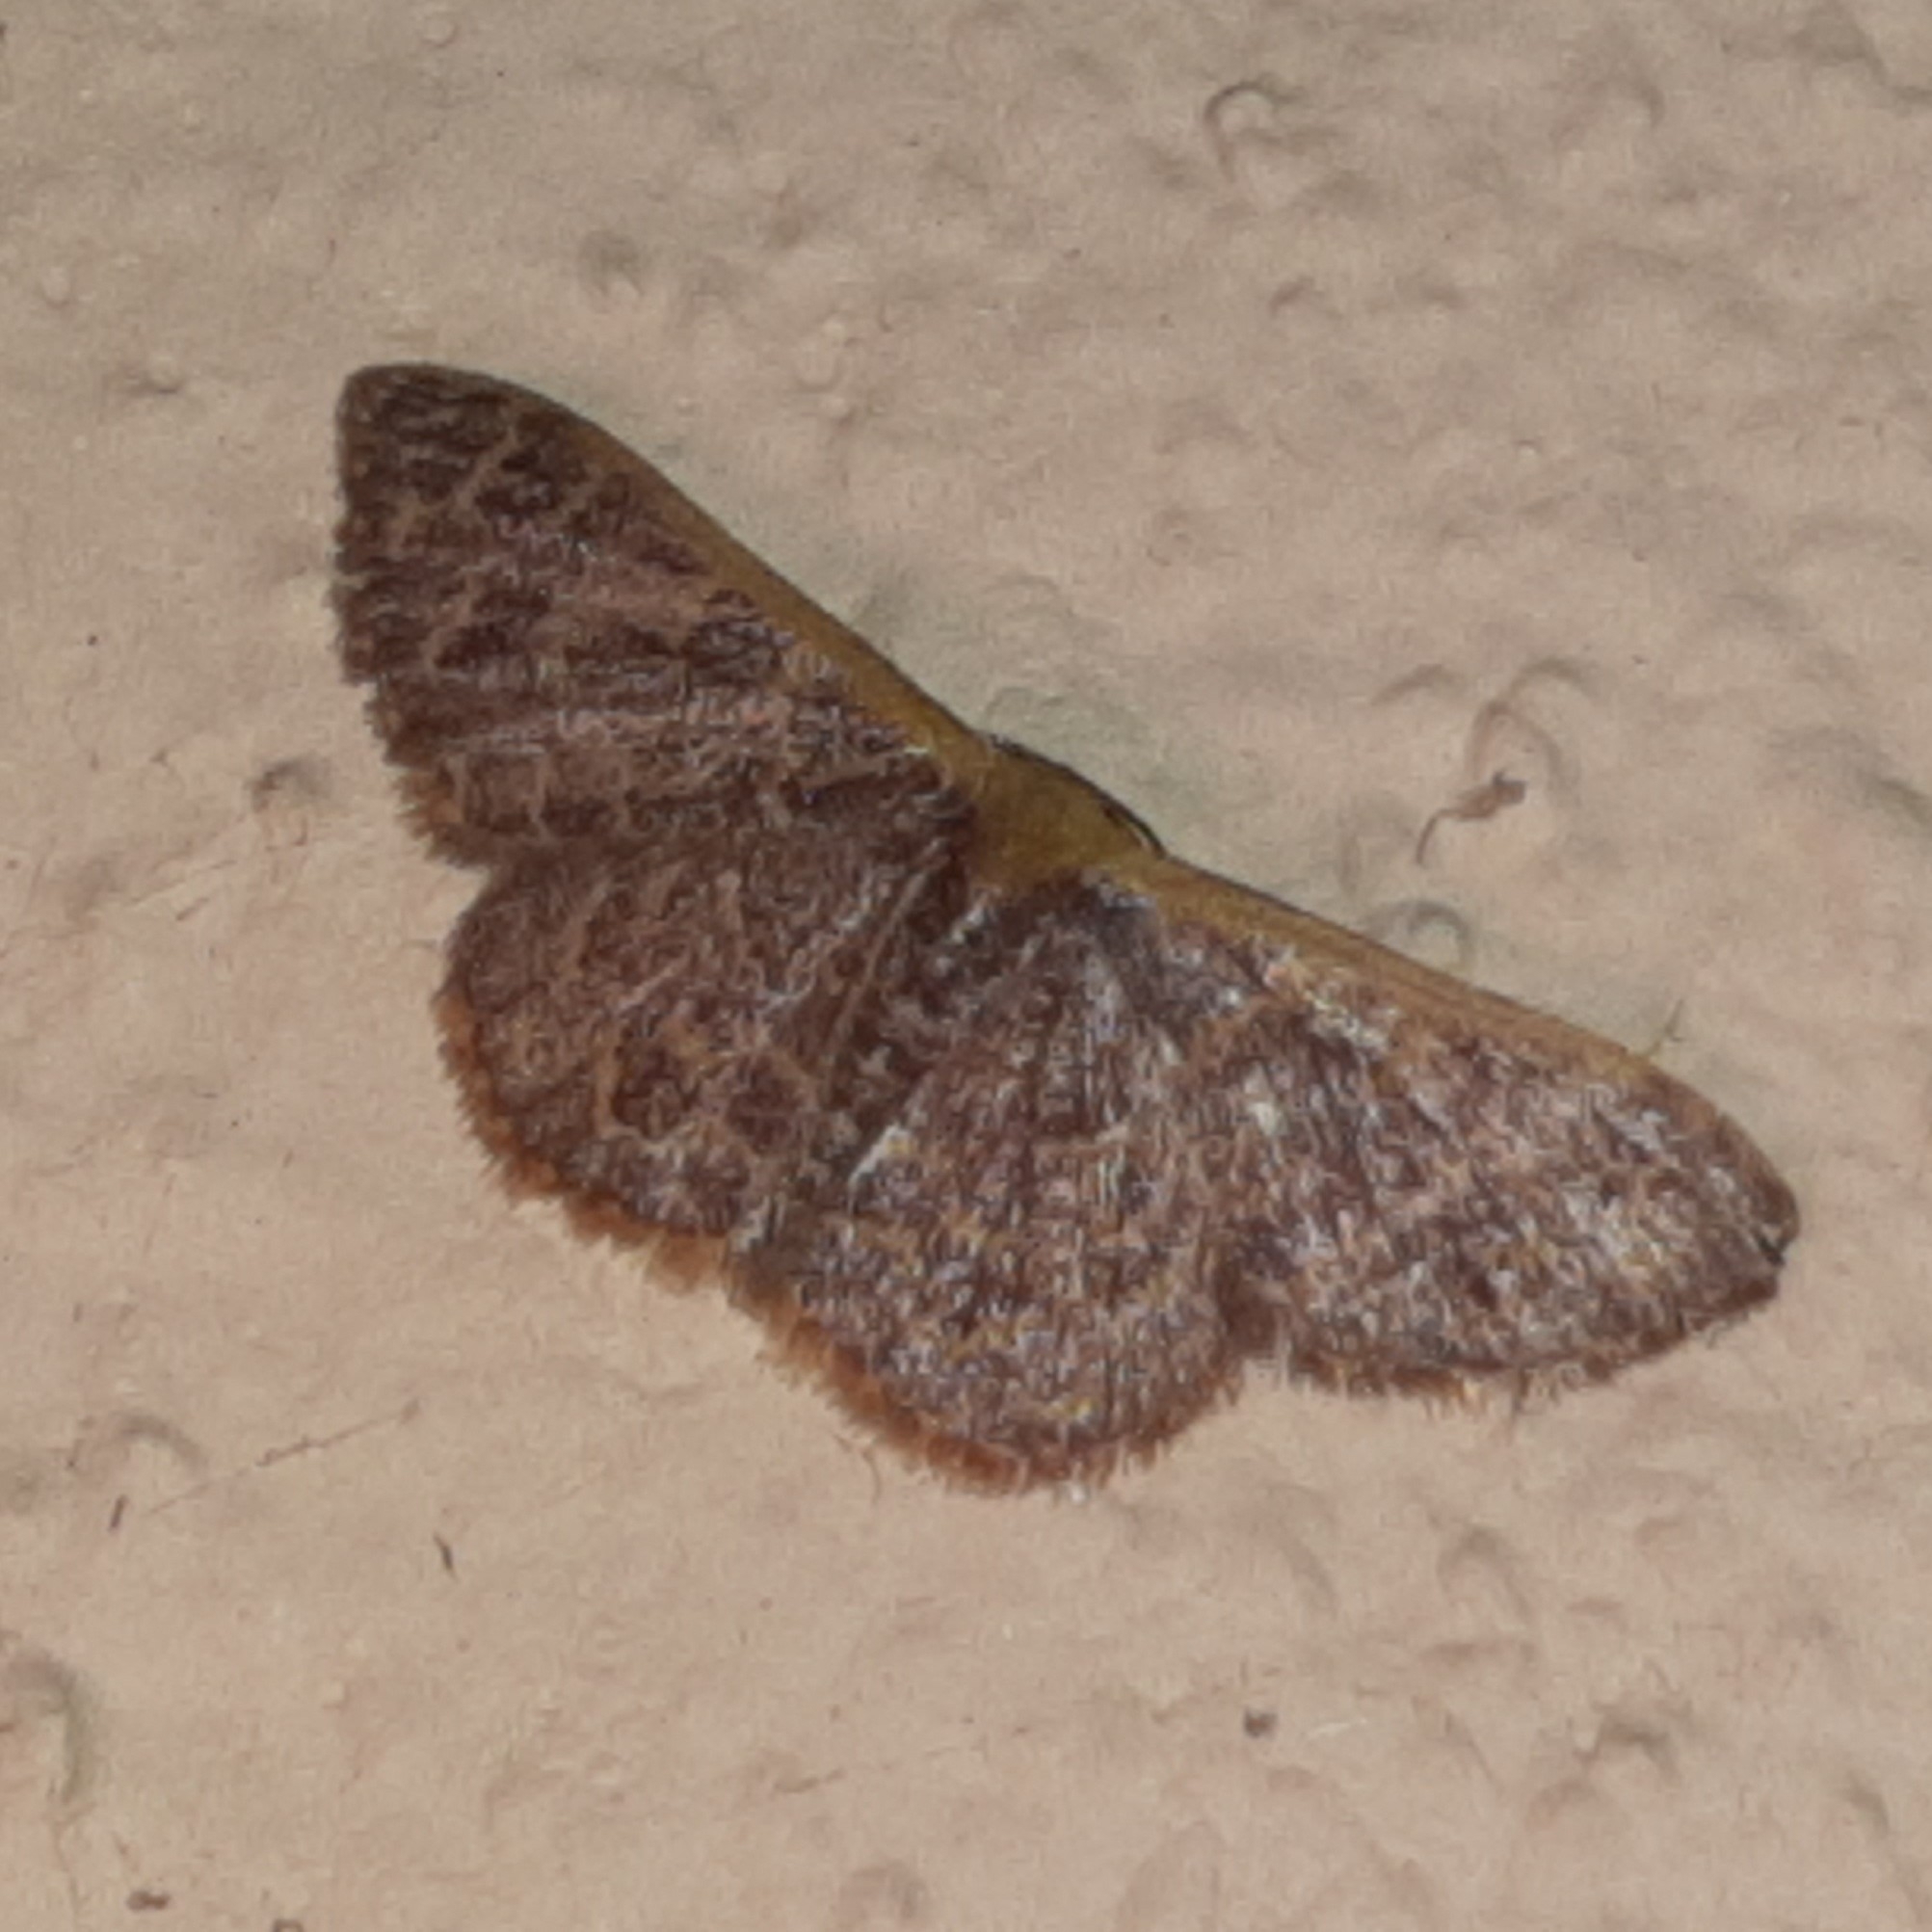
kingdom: Animalia
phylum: Arthropoda
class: Insecta
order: Lepidoptera
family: Geometridae
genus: Leptostales
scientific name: Leptostales crossii
